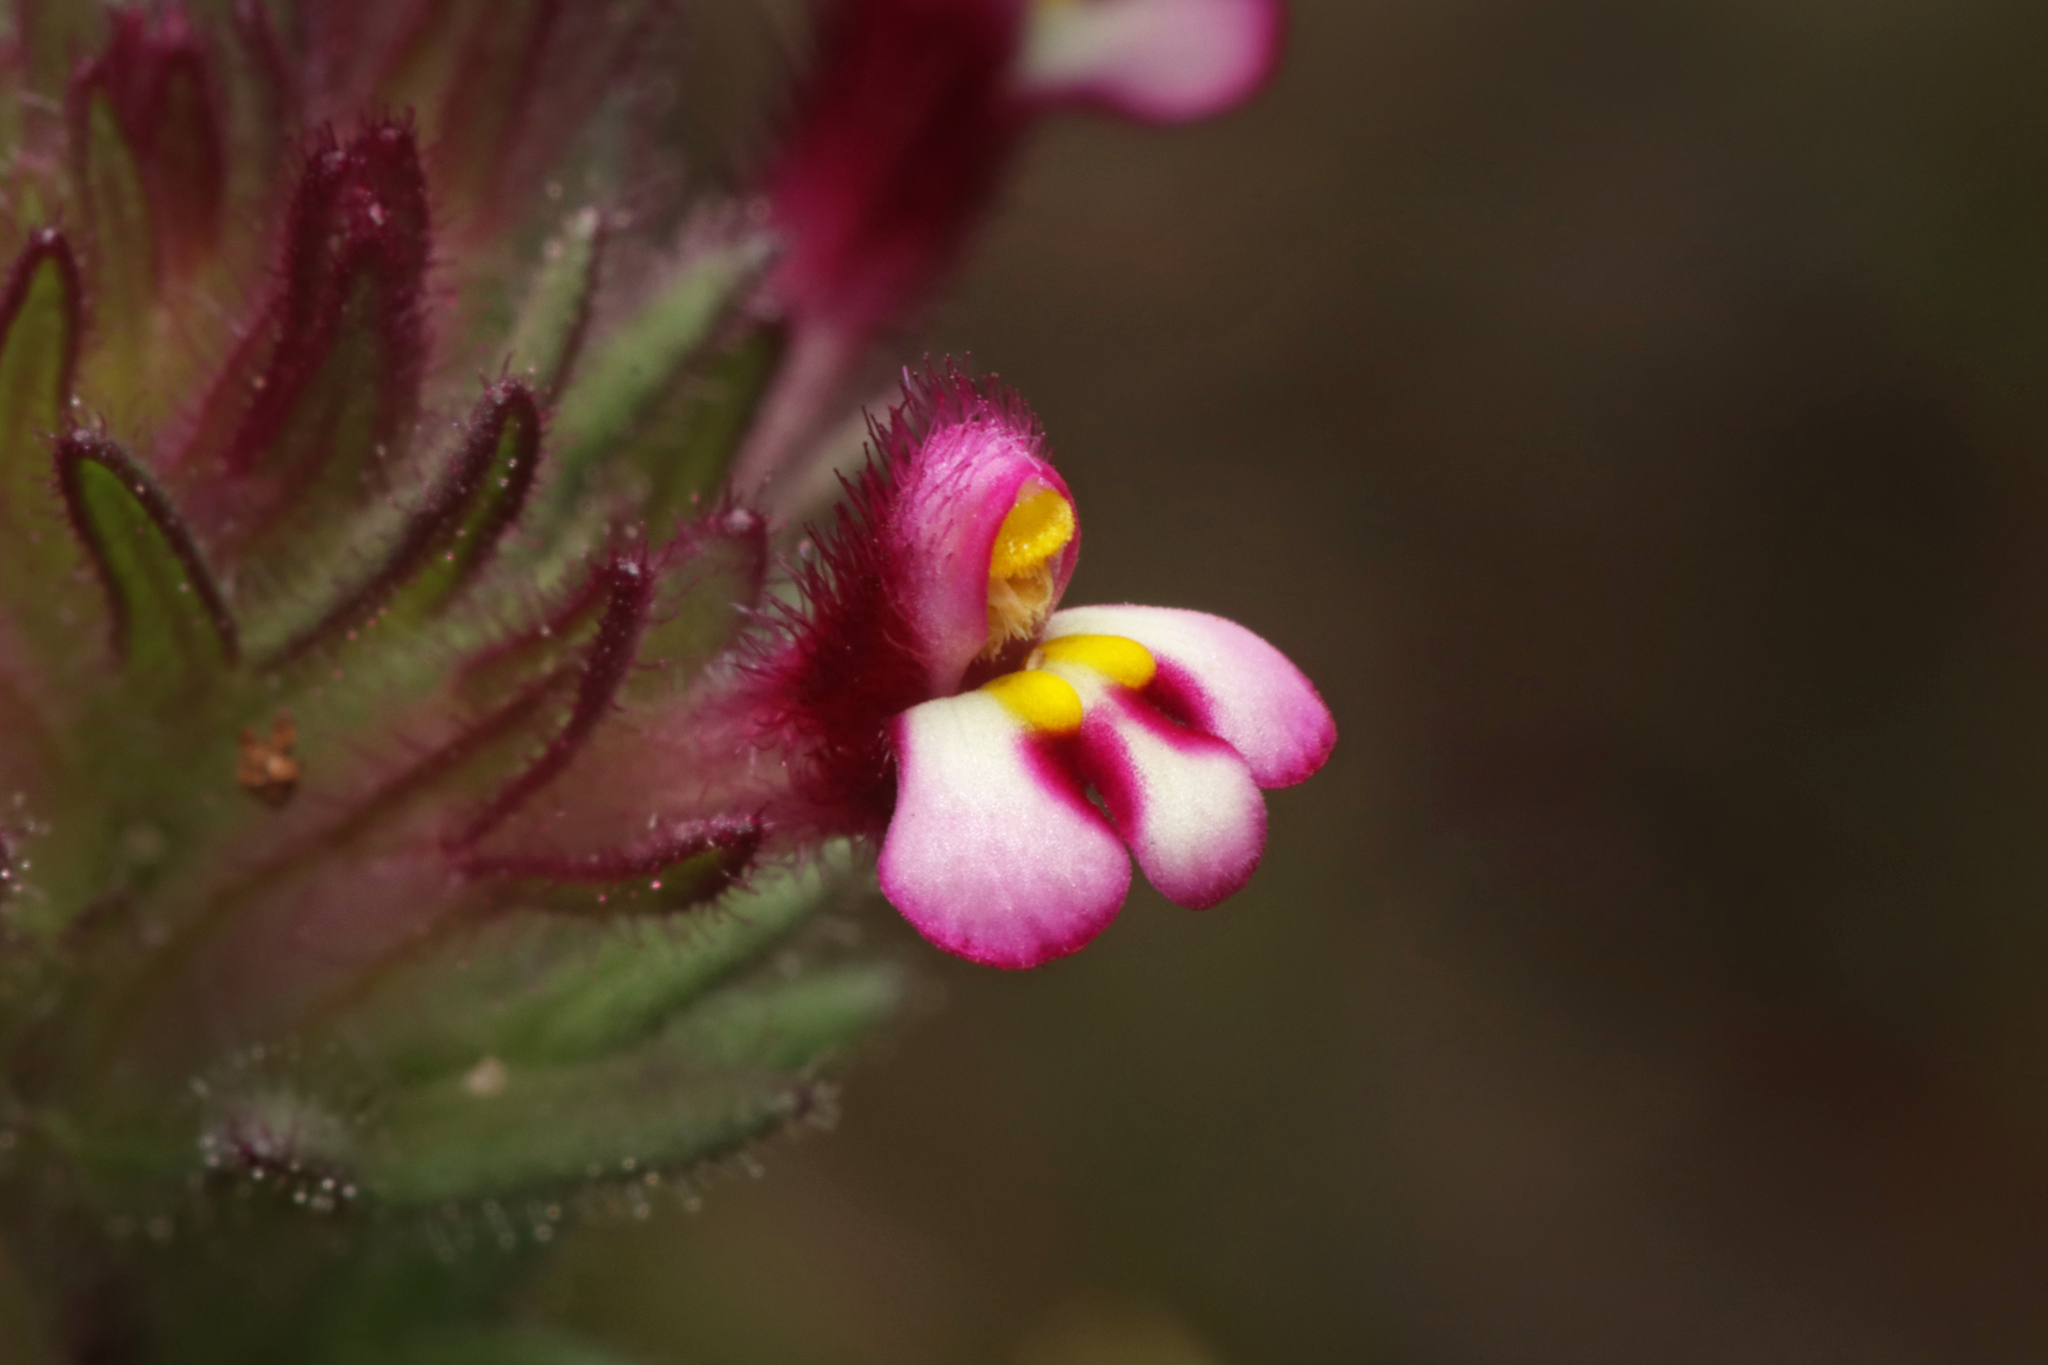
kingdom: Plantae
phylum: Tracheophyta
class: Magnoliopsida
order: Lamiales
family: Orobanchaceae
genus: Parentucellia
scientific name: Parentucellia latifolia
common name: Broadleaf glandweed
